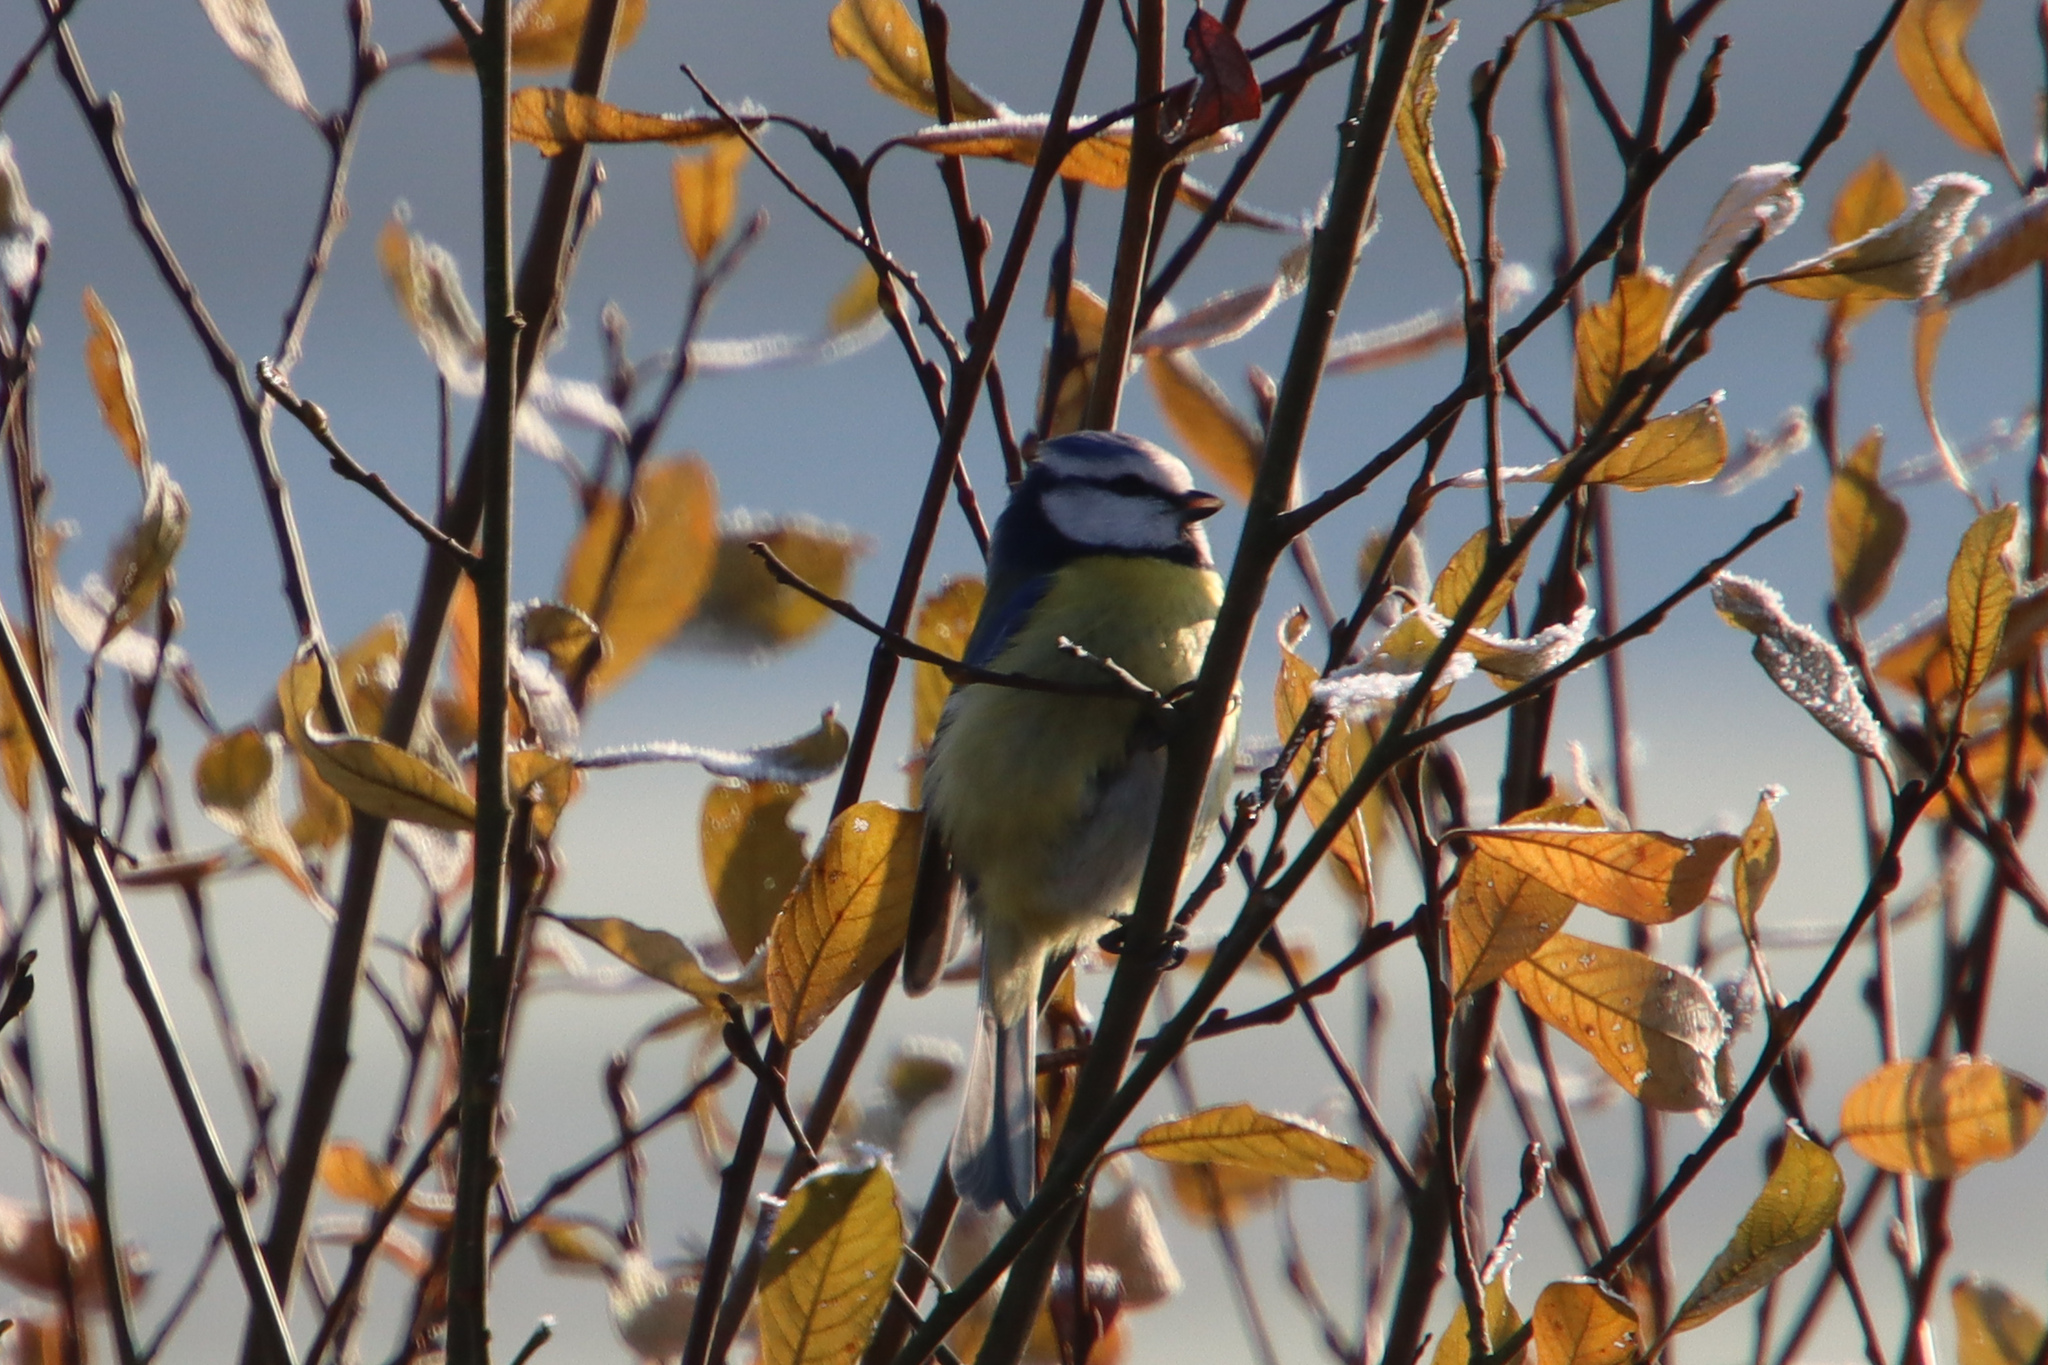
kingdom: Animalia
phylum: Chordata
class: Aves
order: Passeriformes
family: Paridae
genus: Cyanistes
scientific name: Cyanistes caeruleus
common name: Eurasian blue tit
